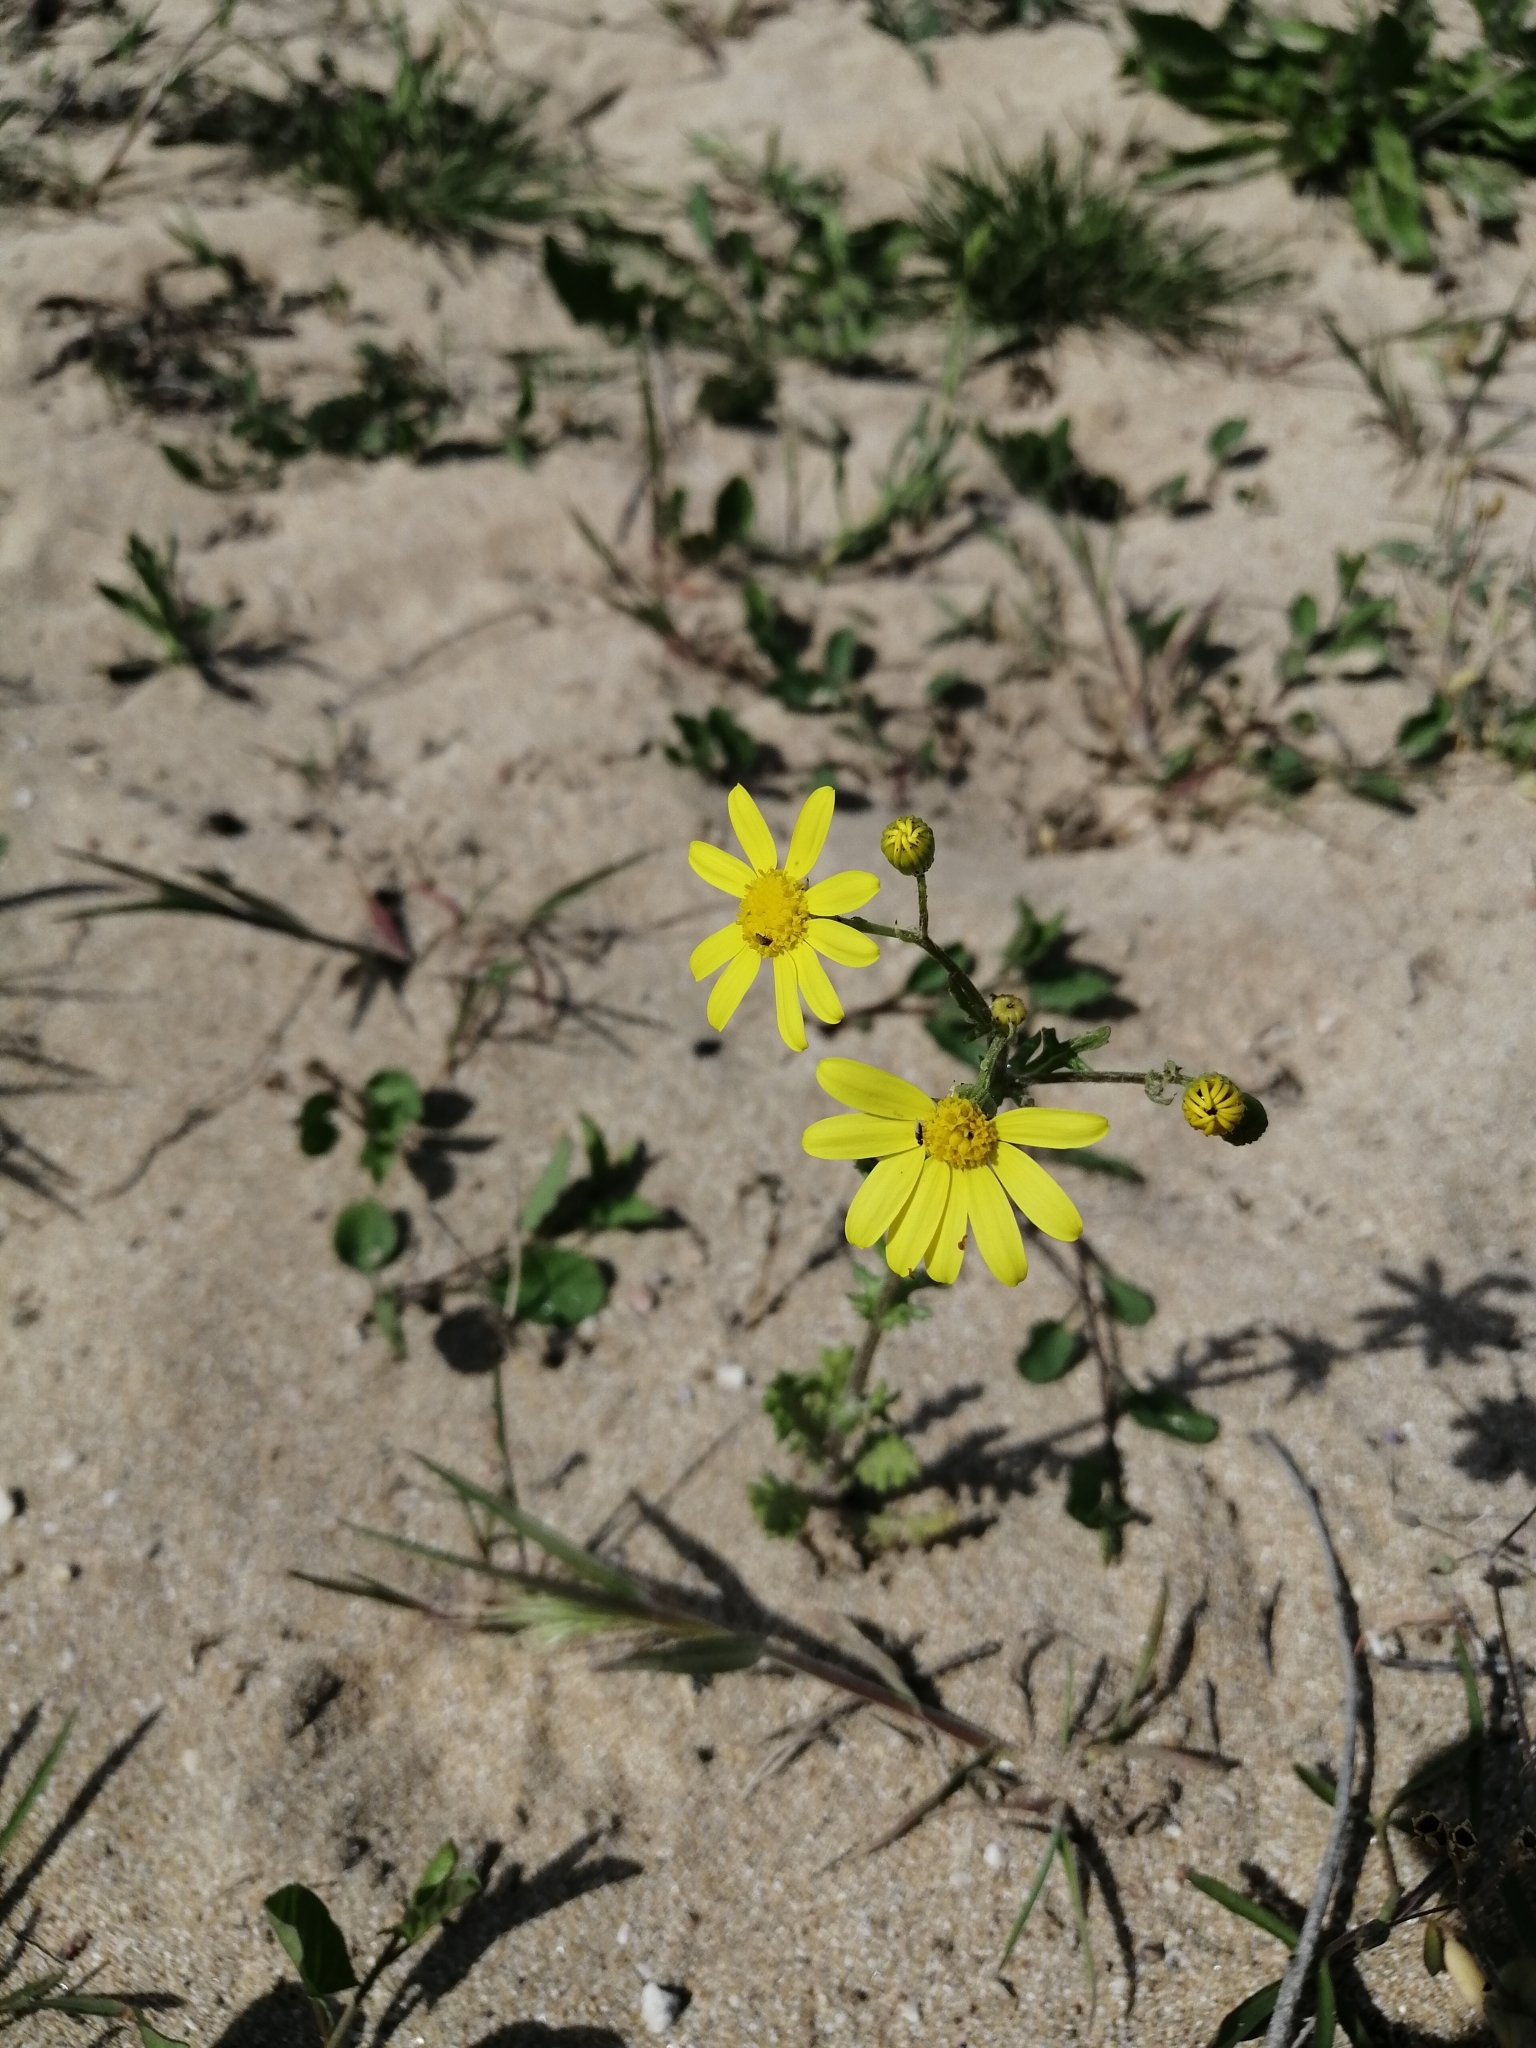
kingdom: Plantae
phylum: Tracheophyta
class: Magnoliopsida
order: Asterales
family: Asteraceae
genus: Senecio
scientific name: Senecio vernalis
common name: Eastern groundsel
